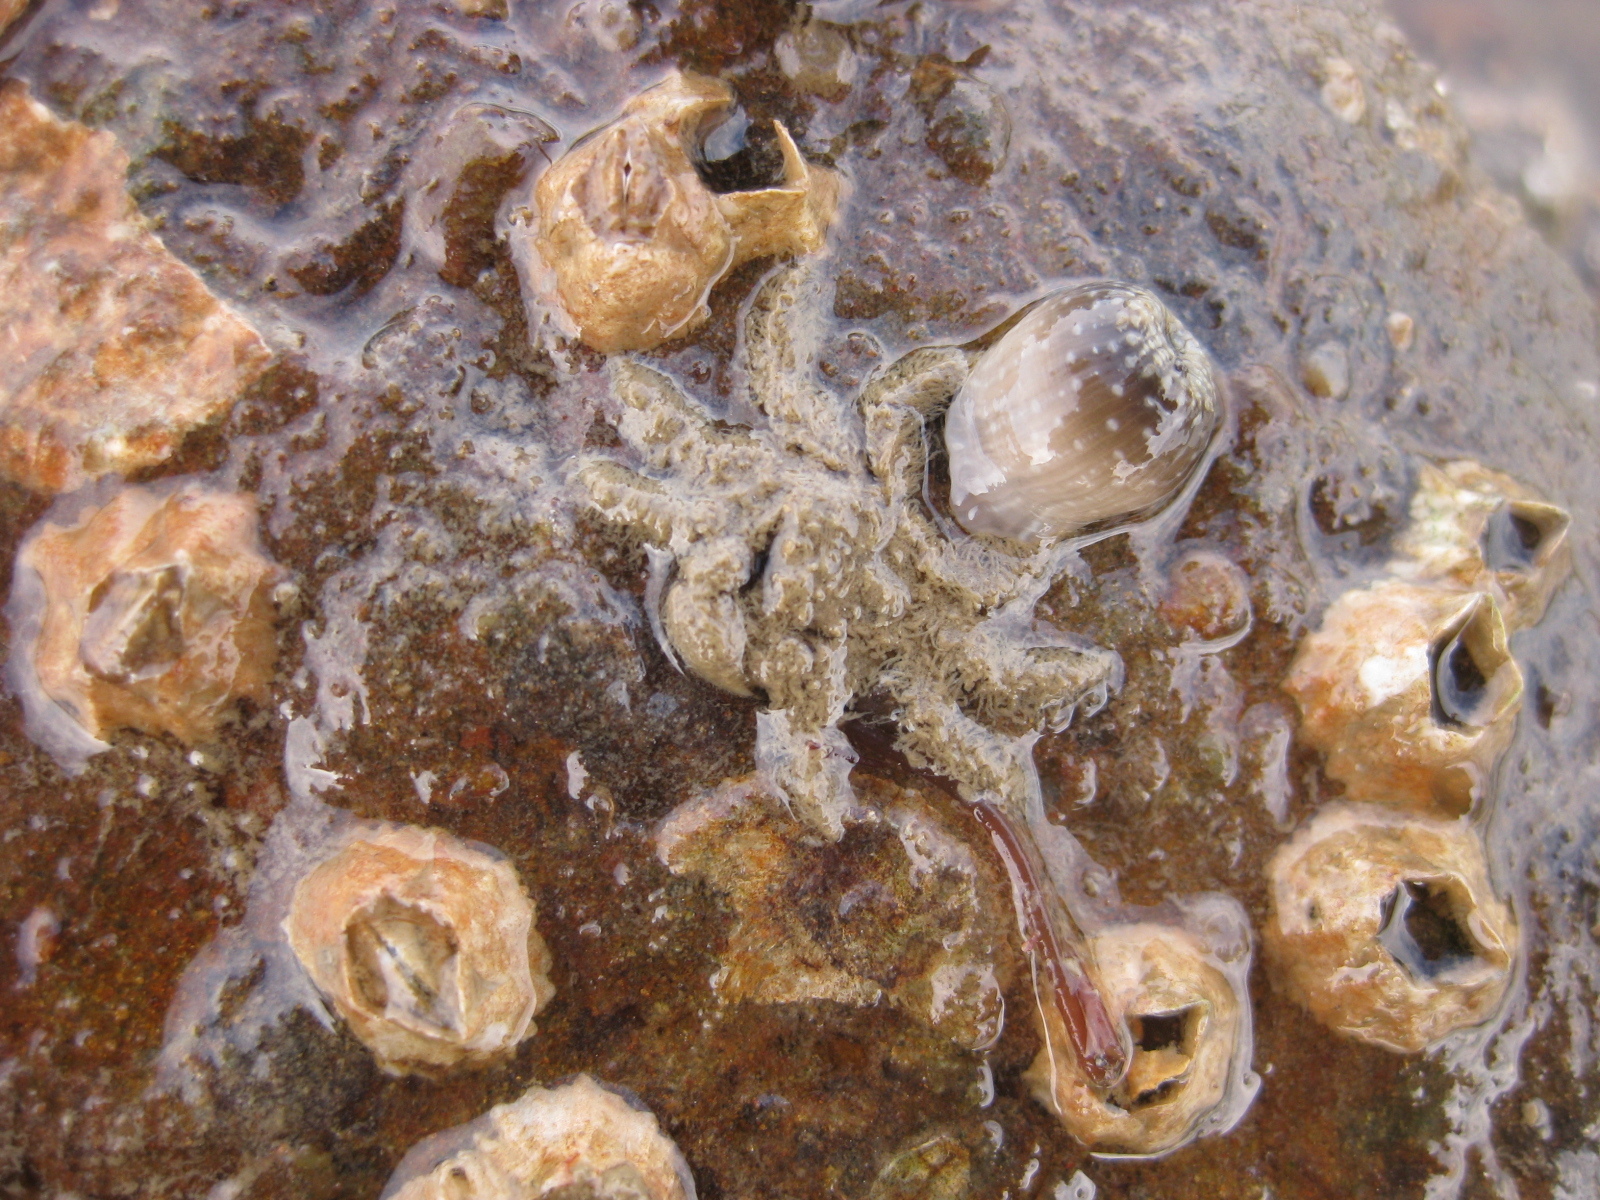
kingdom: Animalia
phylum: Arthropoda
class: Malacostraca
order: Decapoda
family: Hymenosomatidae
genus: Neohymenicus
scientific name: Neohymenicus pubescens
